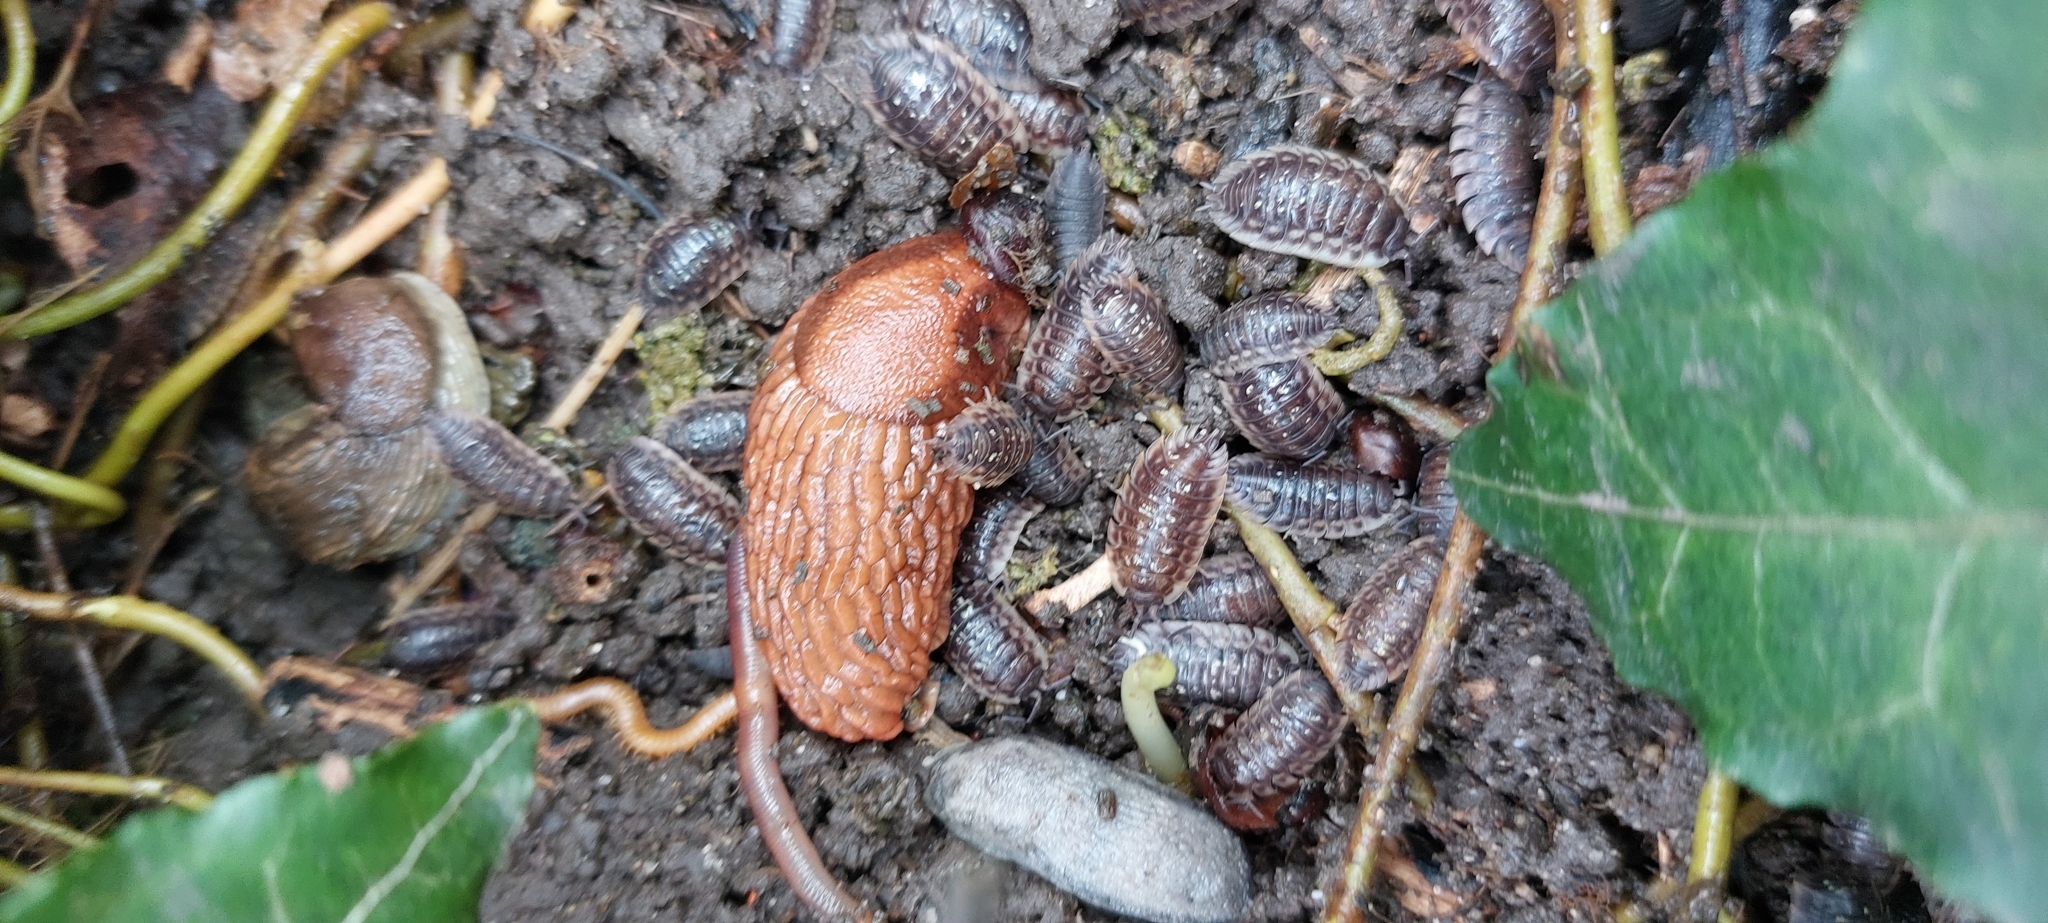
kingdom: Animalia
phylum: Arthropoda
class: Malacostraca
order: Isopoda
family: Oniscidae
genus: Oniscus
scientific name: Oniscus asellus
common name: Common shiny woodlouse
